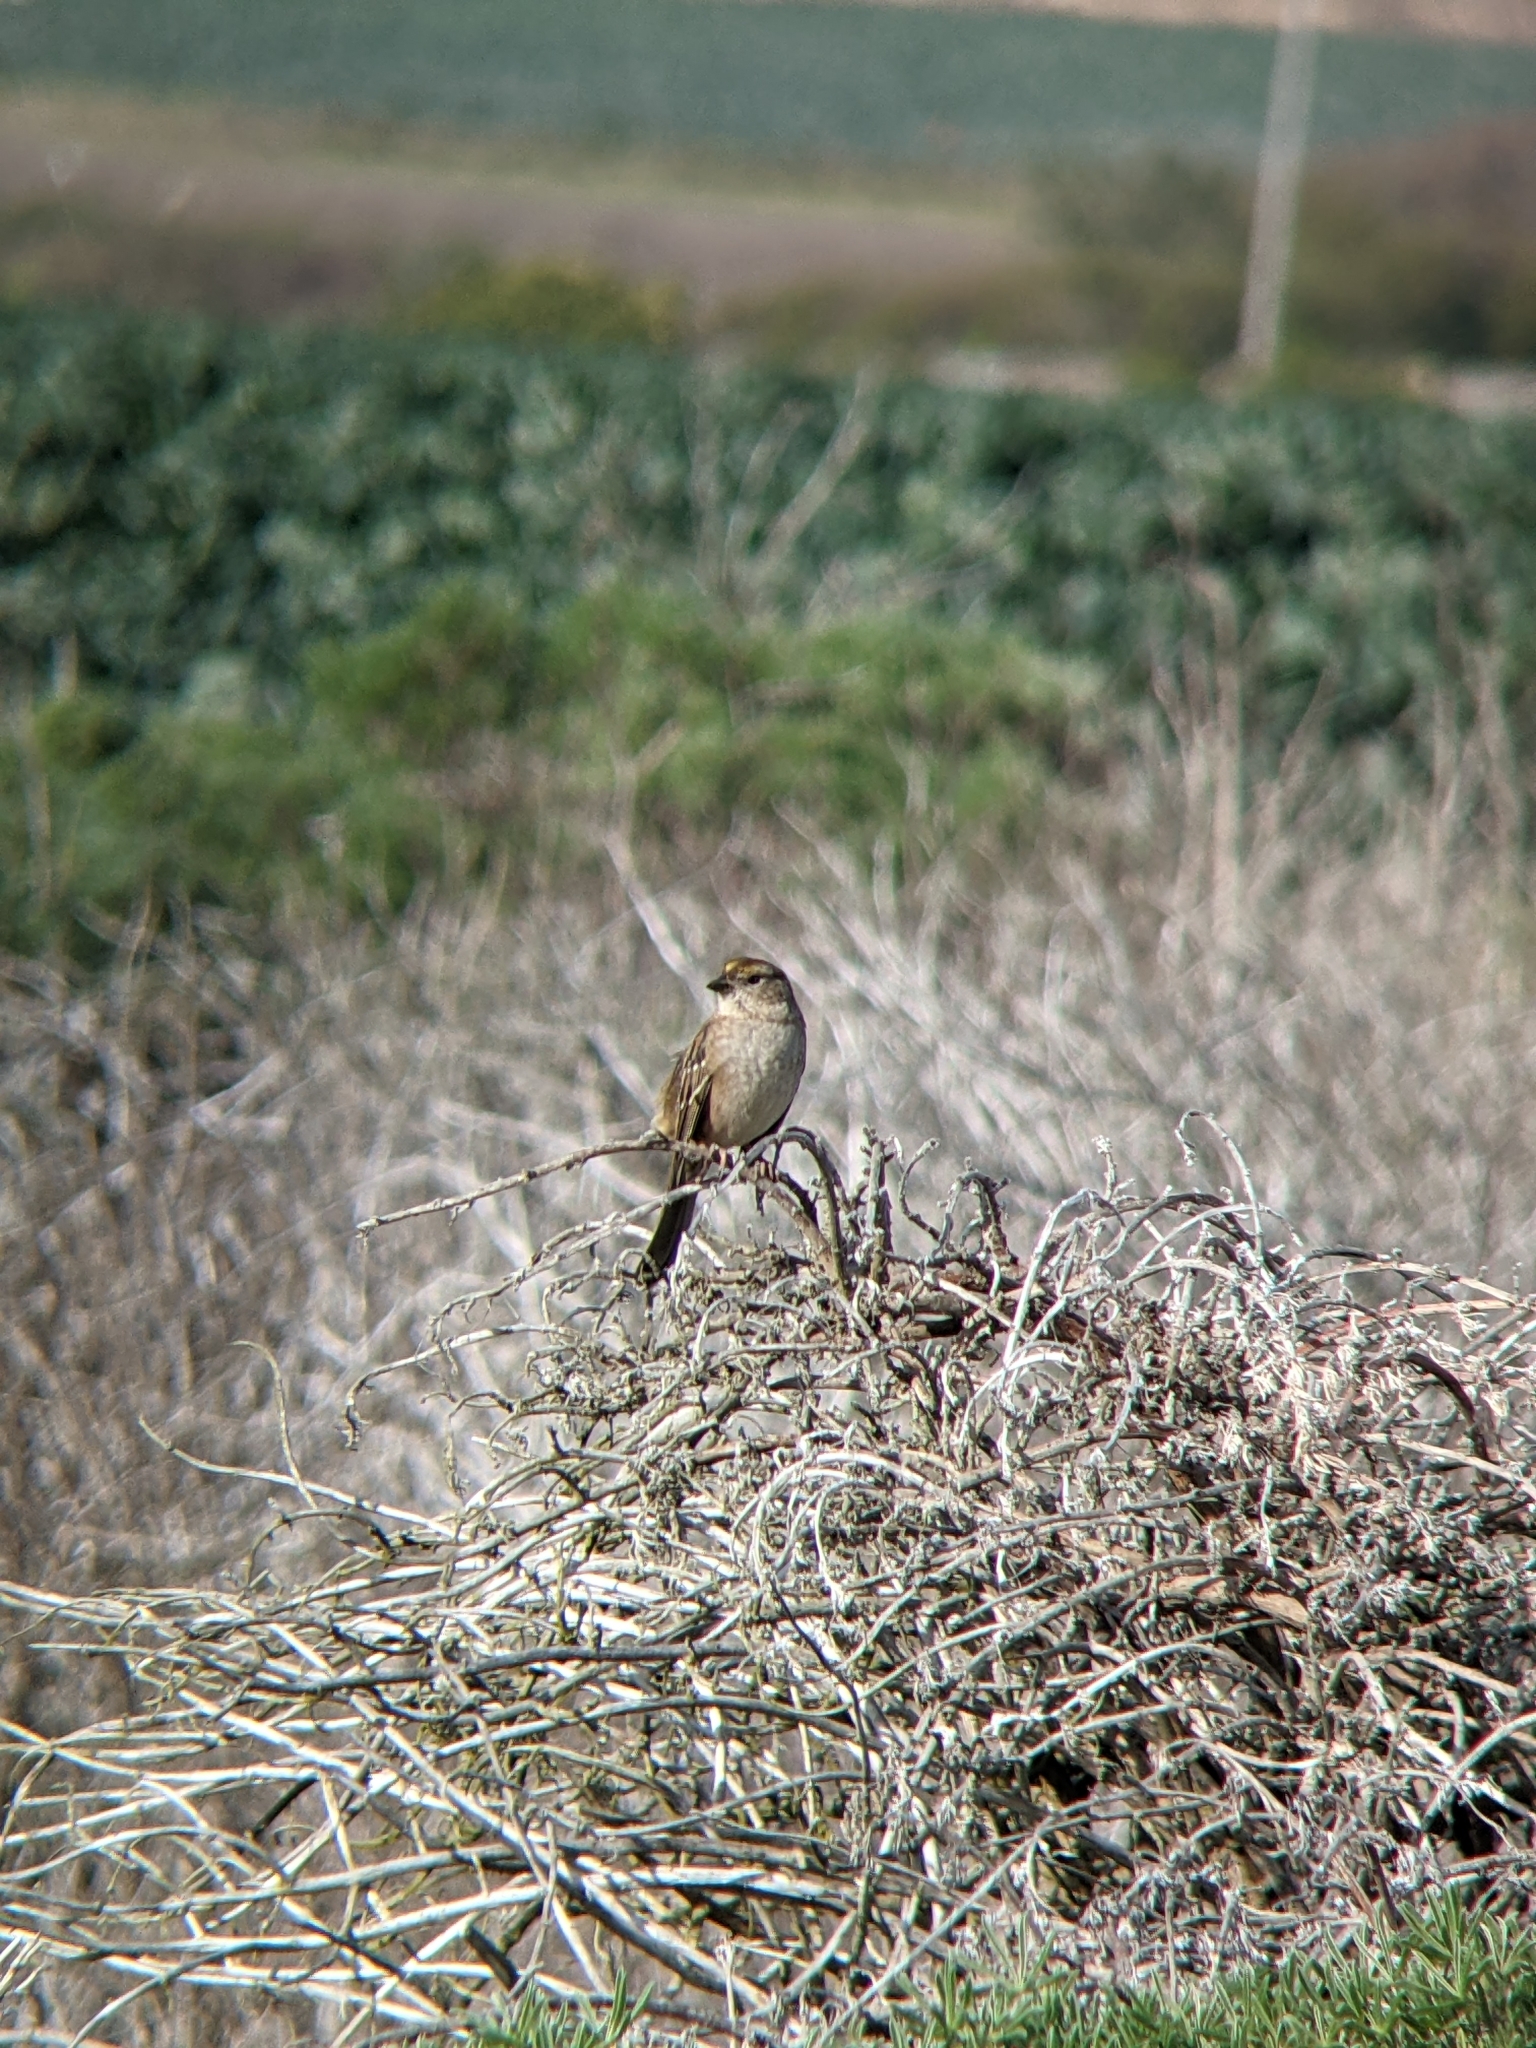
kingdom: Animalia
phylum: Chordata
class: Aves
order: Passeriformes
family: Passerellidae
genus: Zonotrichia
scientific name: Zonotrichia atricapilla
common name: Golden-crowned sparrow
